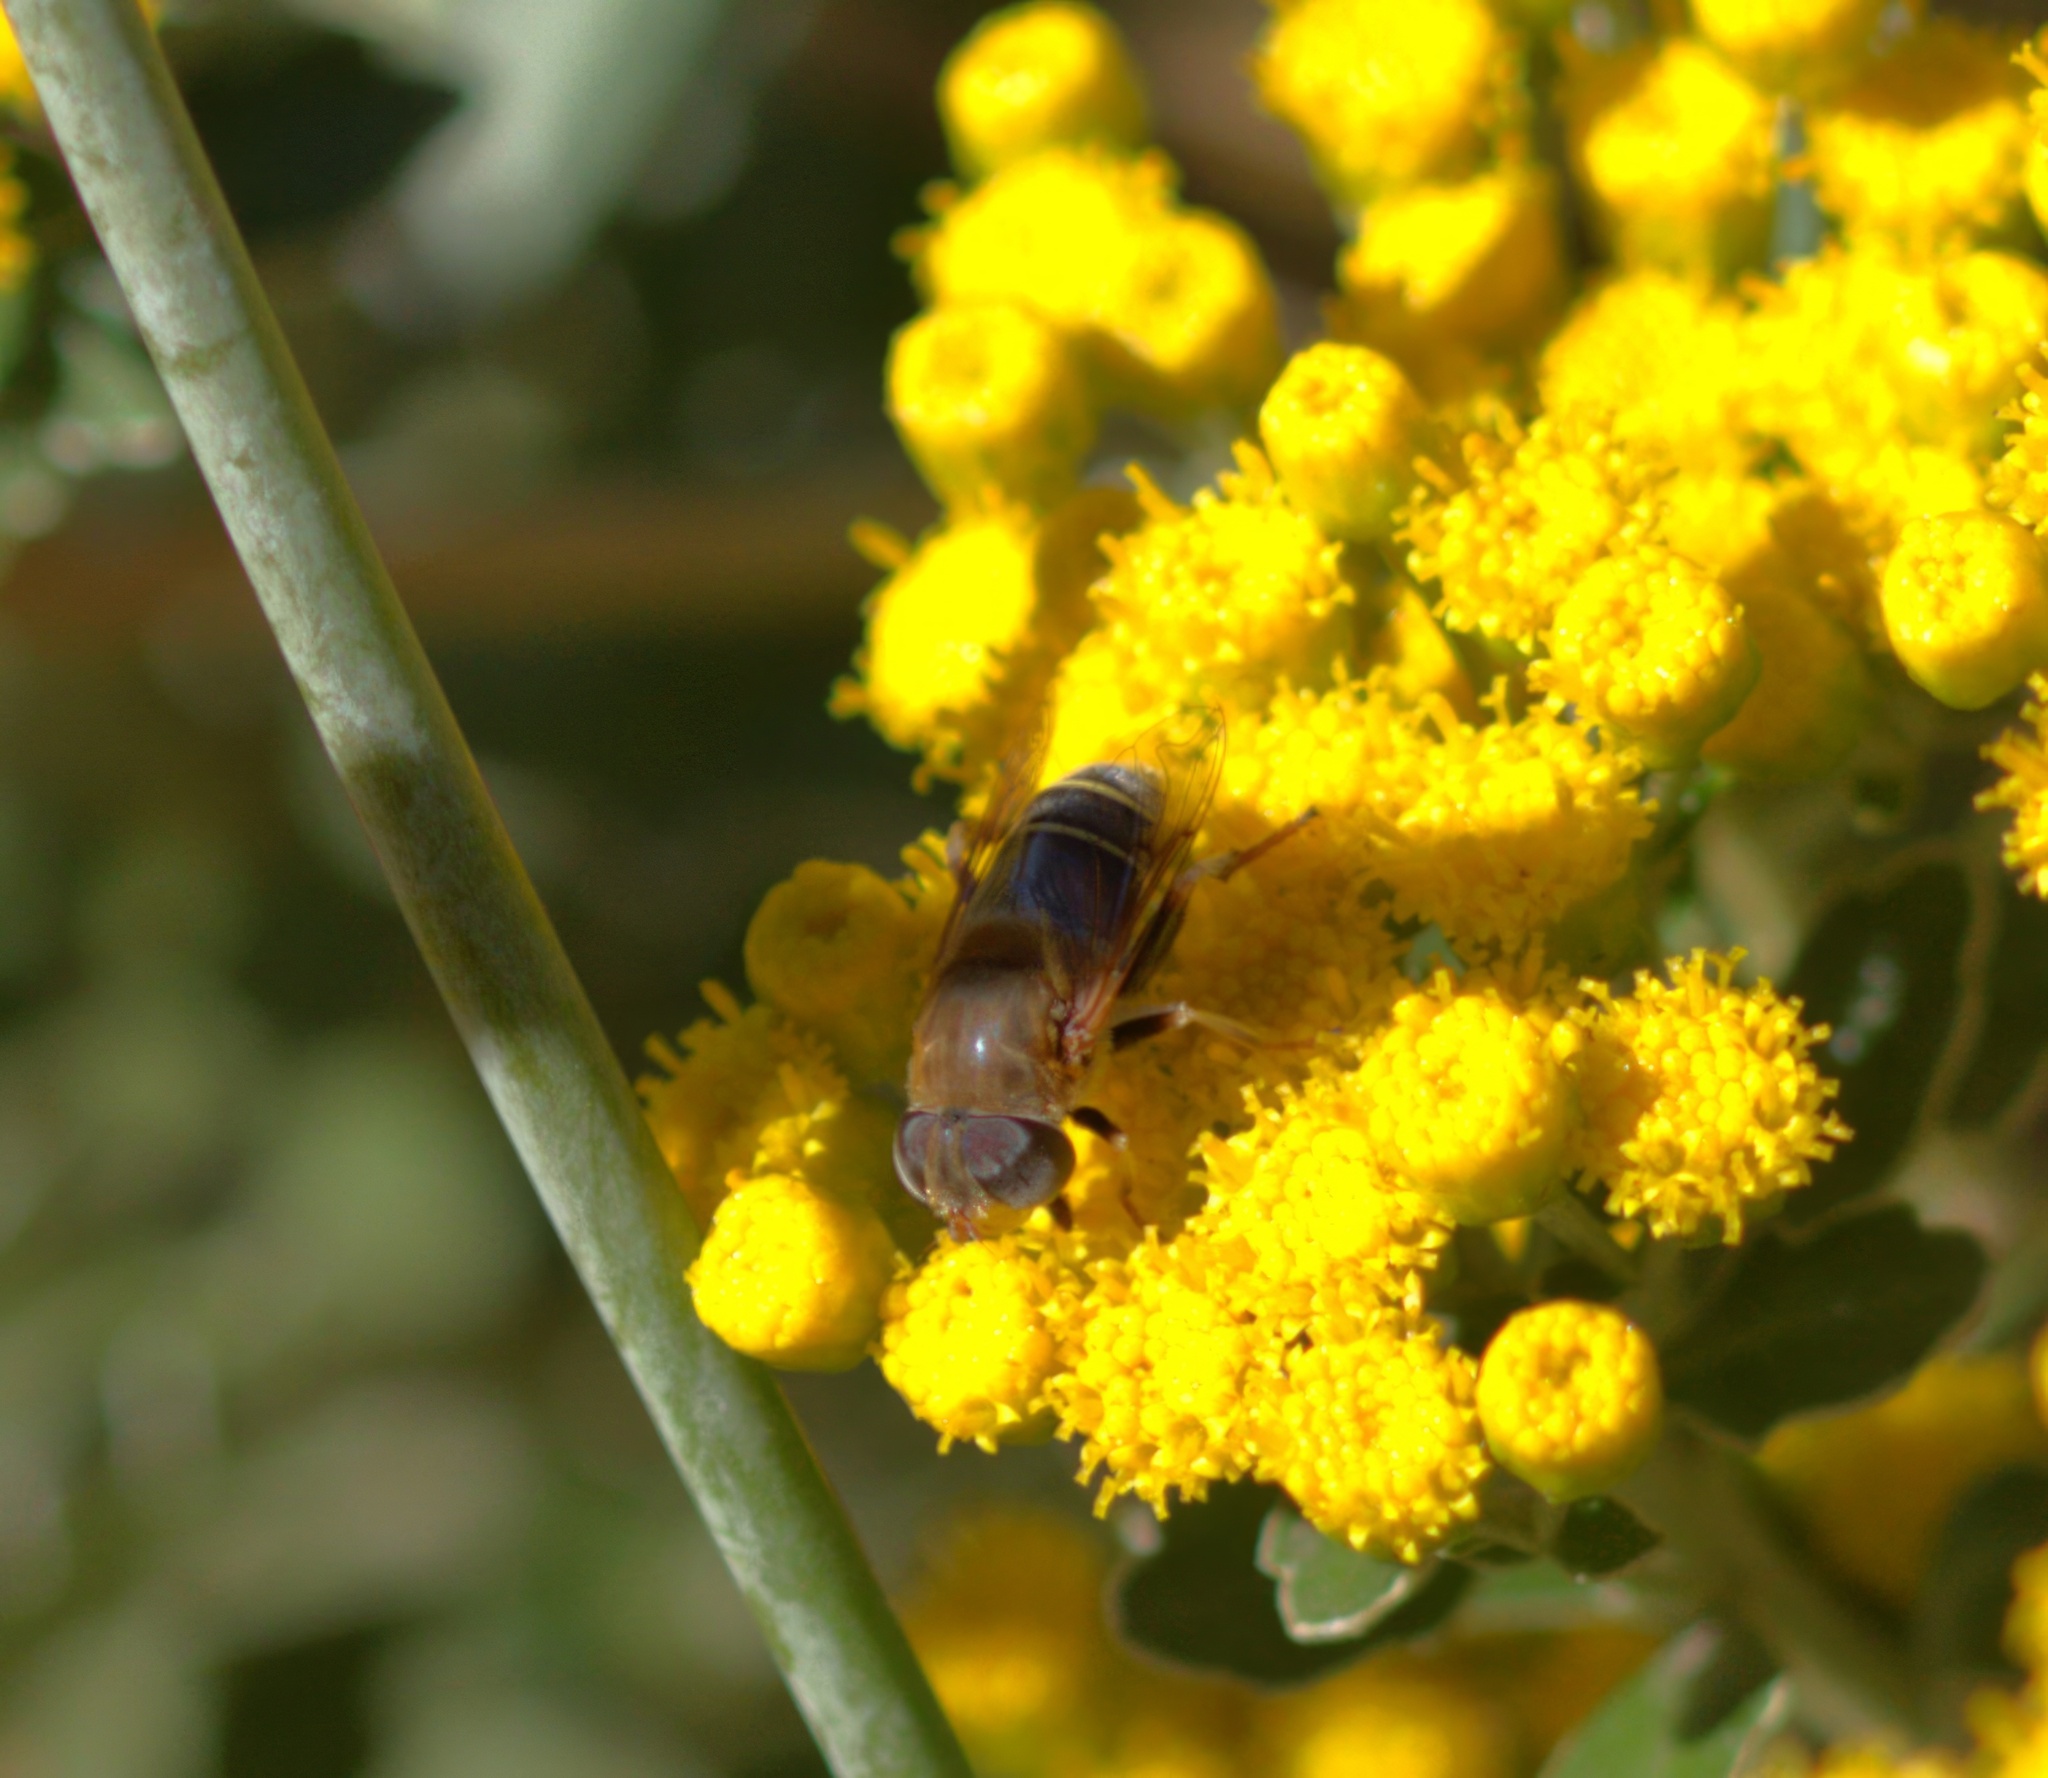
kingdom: Animalia
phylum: Arthropoda
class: Insecta
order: Diptera
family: Syrphidae
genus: Palpada
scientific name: Palpada mexicana
